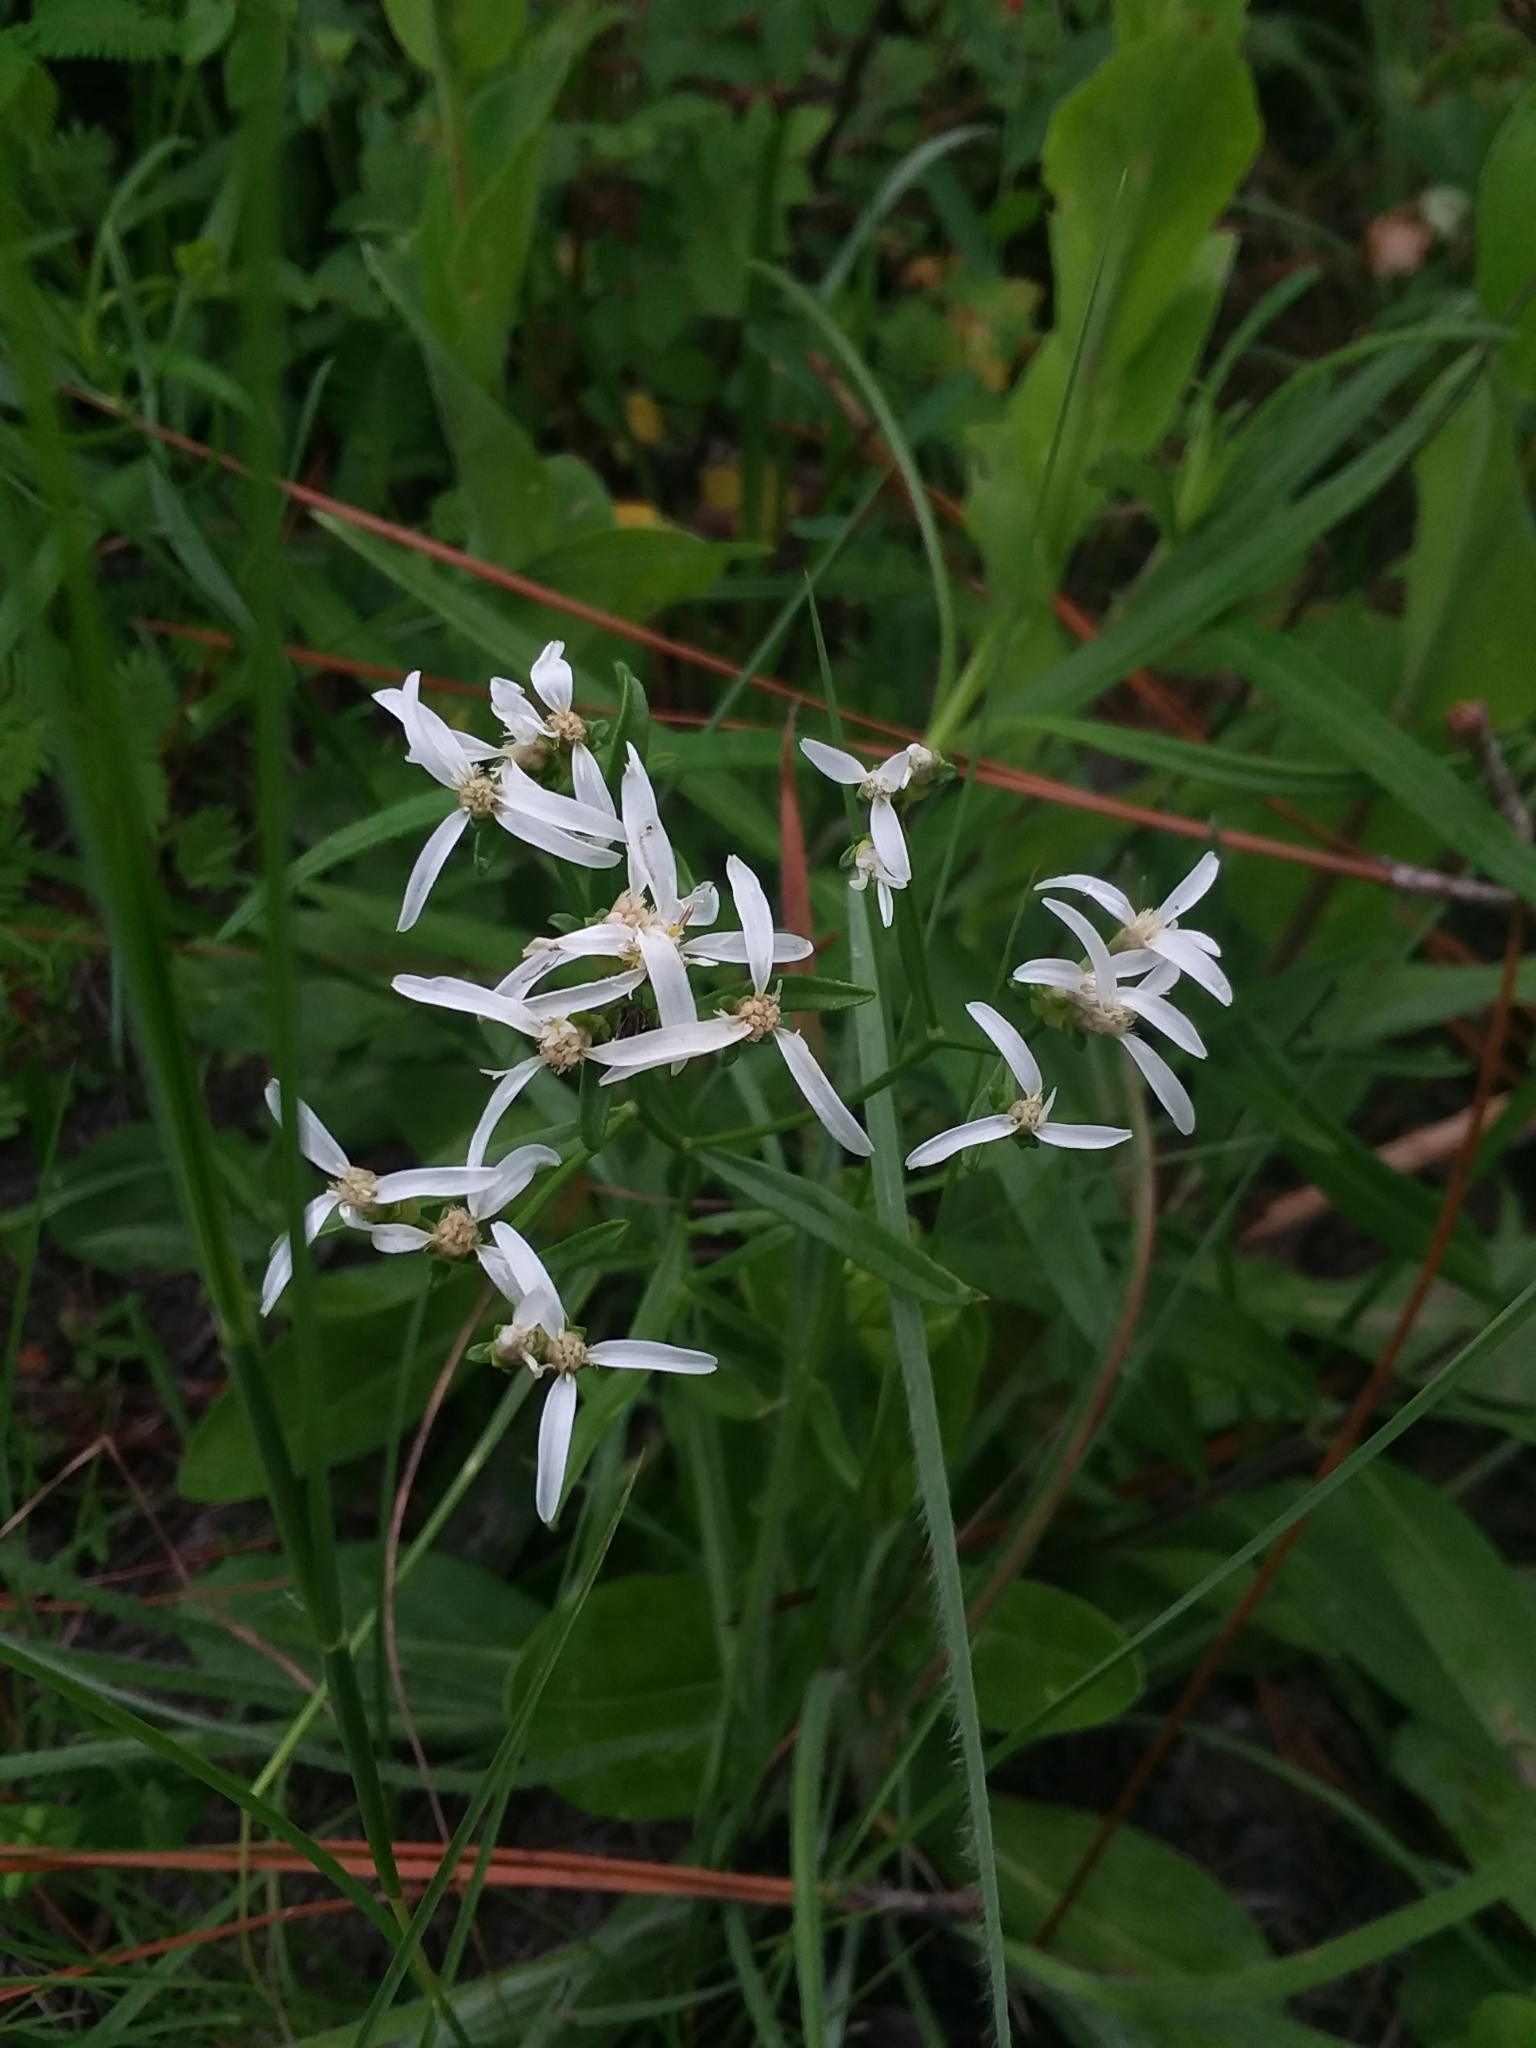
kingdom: Plantae
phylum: Tracheophyta
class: Magnoliopsida
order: Asterales
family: Asteraceae
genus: Sericocarpus
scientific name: Sericocarpus linifolius
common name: Narrow-leaf aster
